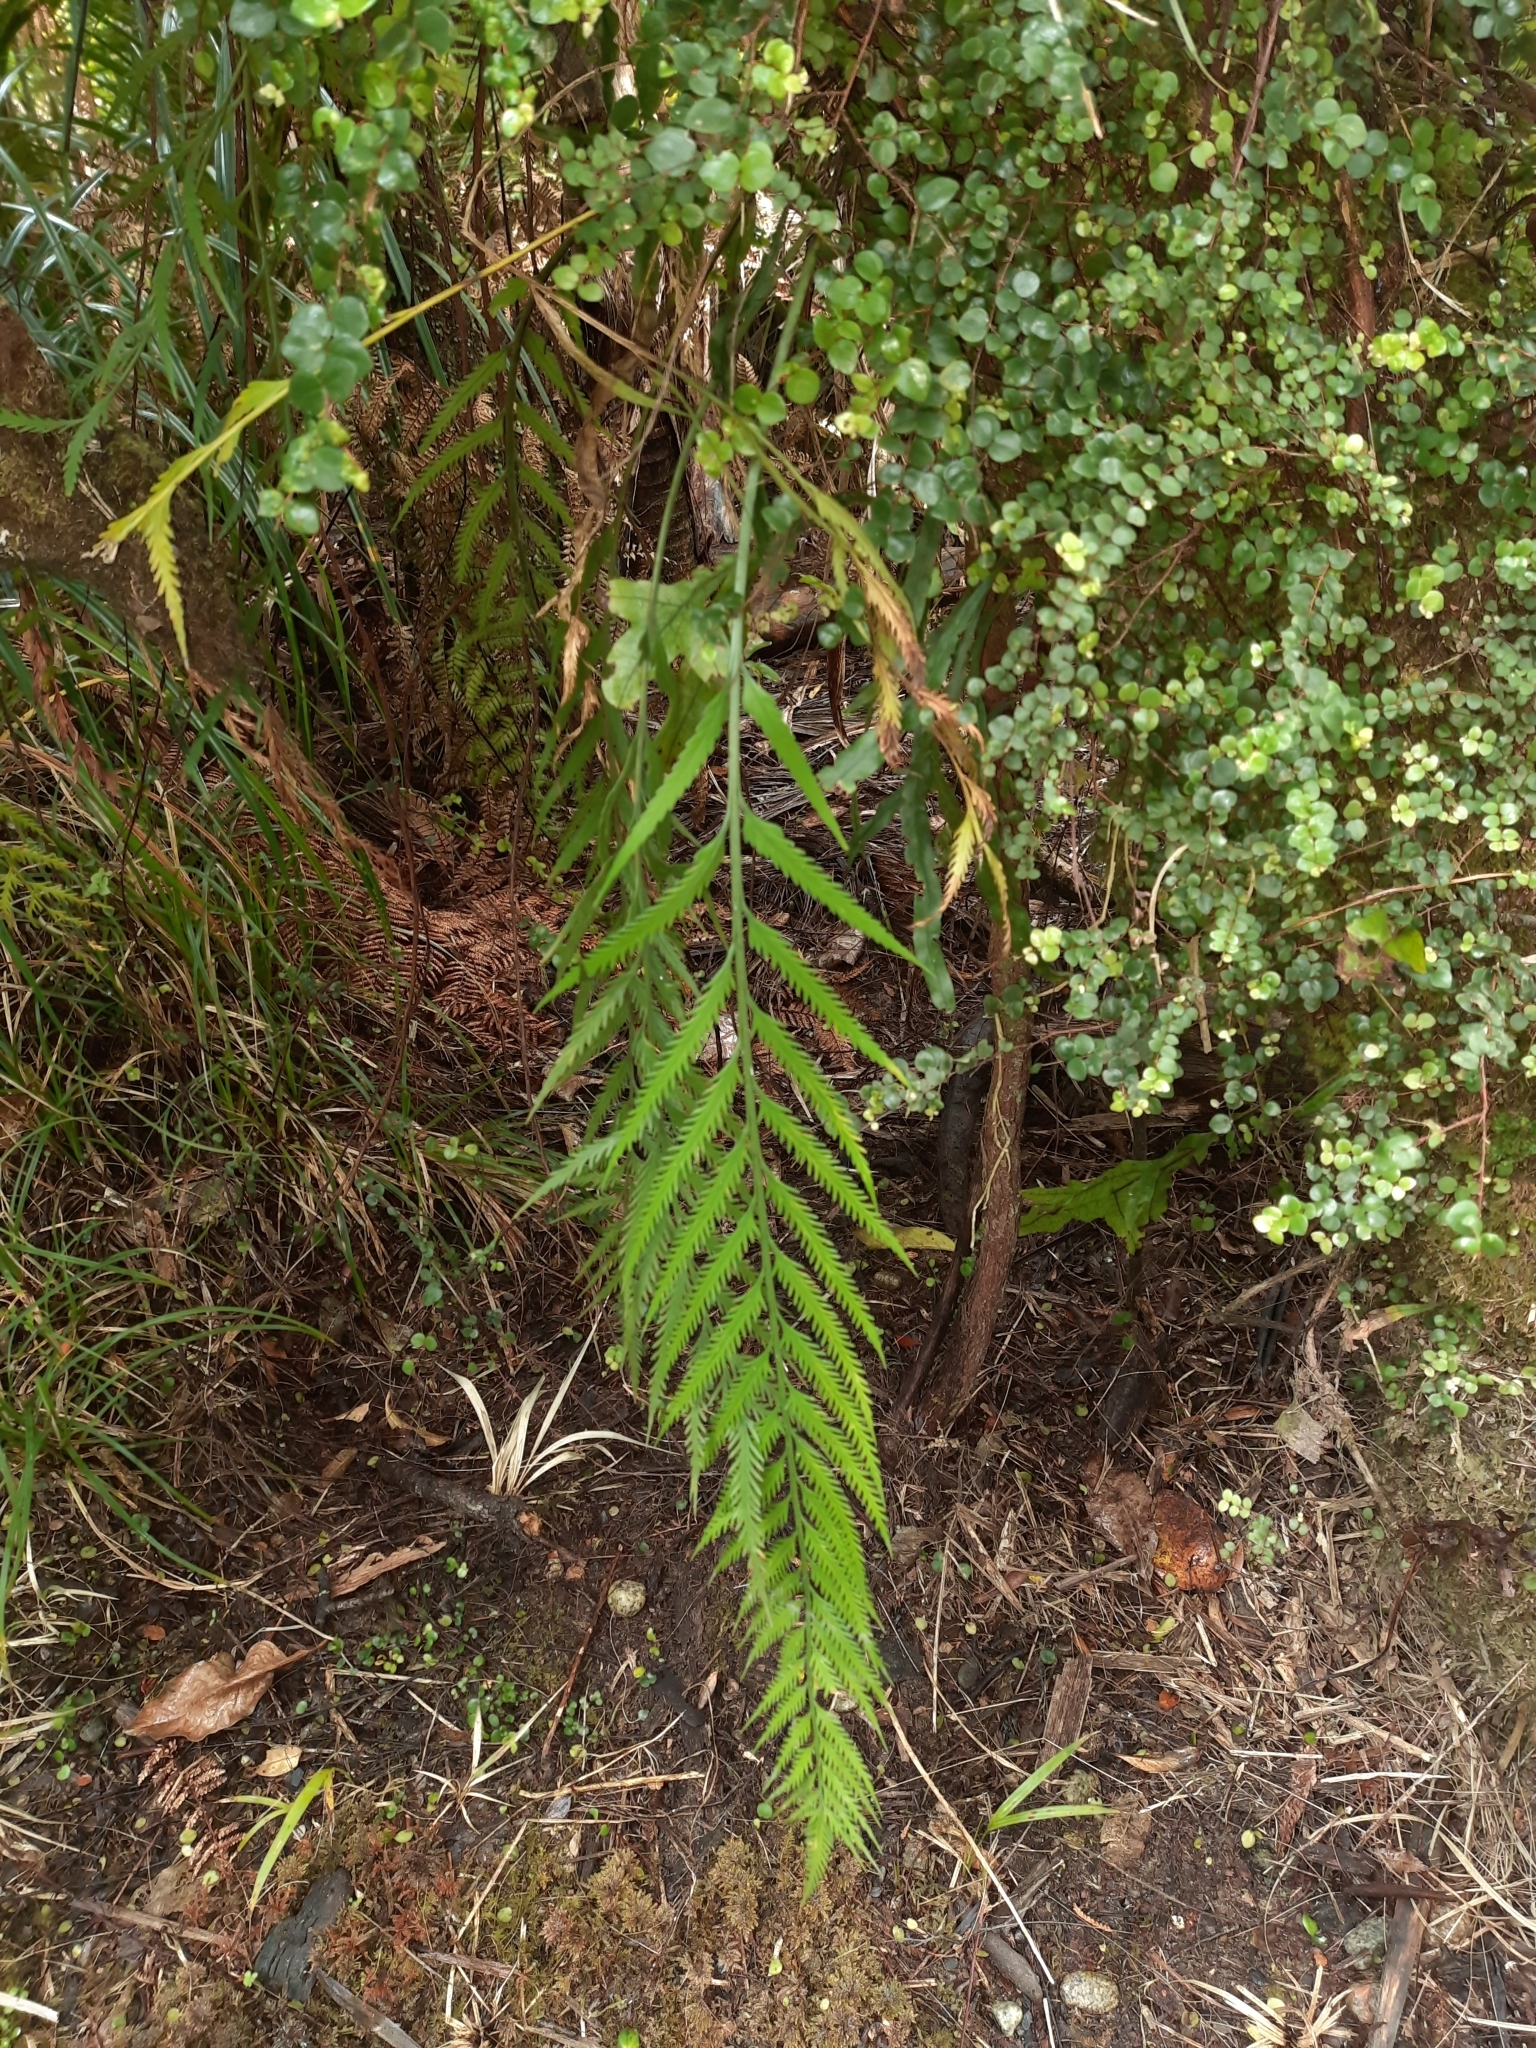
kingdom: Plantae
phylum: Tracheophyta
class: Polypodiopsida
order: Polypodiales
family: Aspleniaceae
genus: Asplenium
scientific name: Asplenium flaccidum
